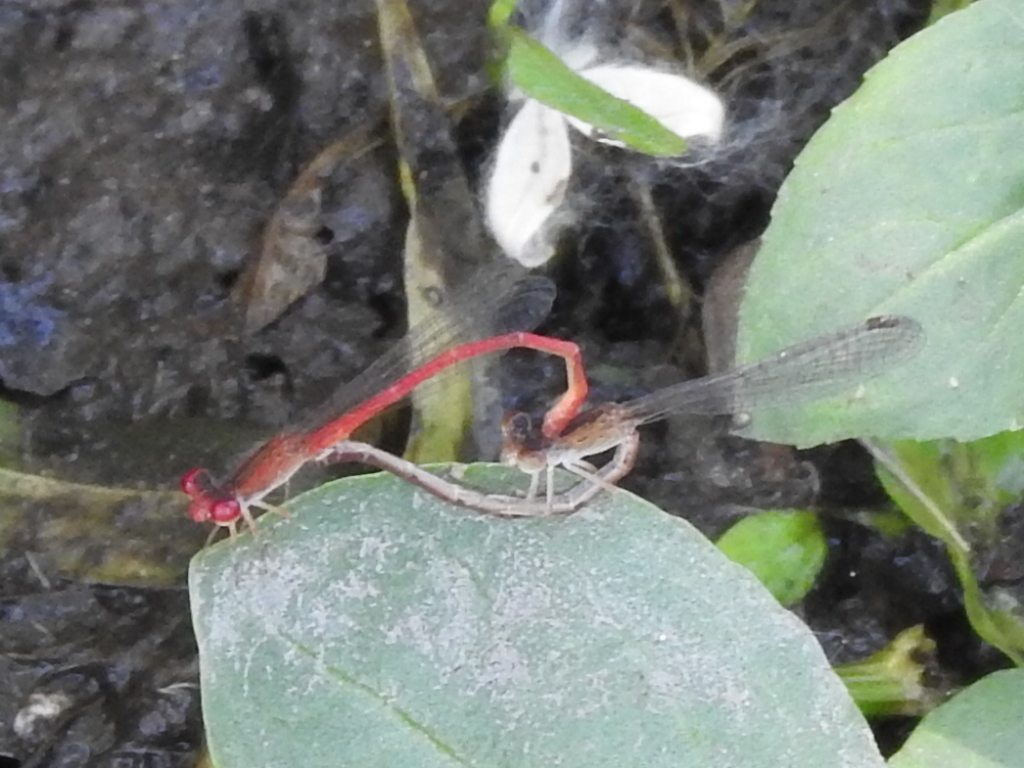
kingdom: Animalia
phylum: Arthropoda
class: Insecta
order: Odonata
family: Coenagrionidae
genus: Telebasis
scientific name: Telebasis salva
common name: Desert firetail
